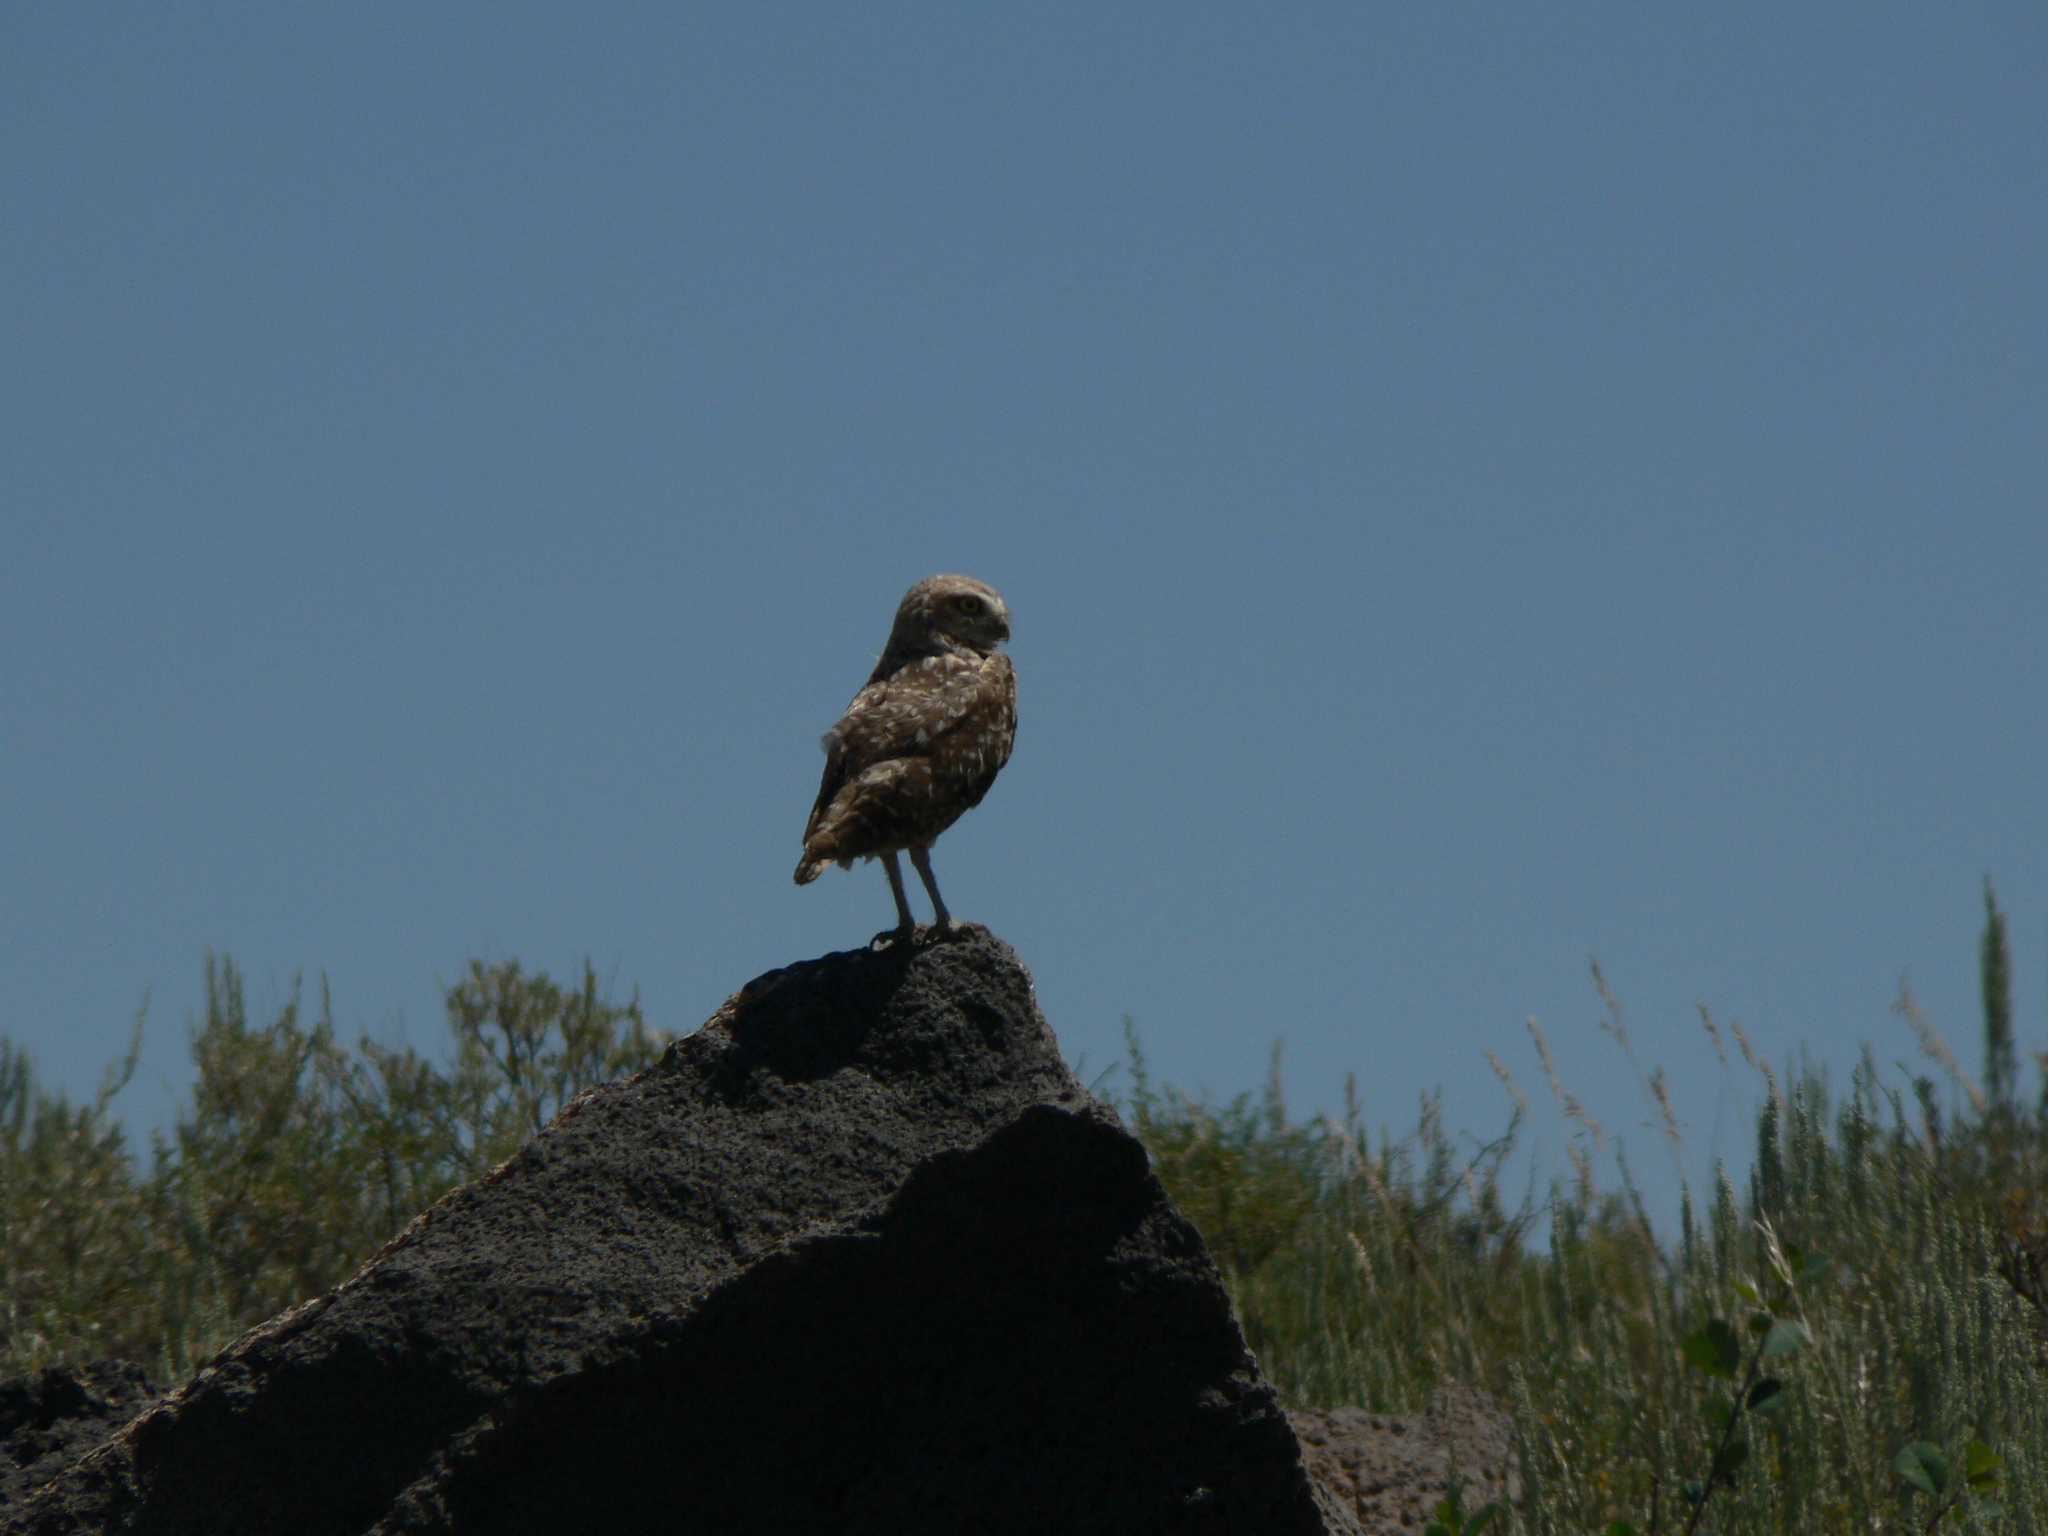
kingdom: Animalia
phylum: Chordata
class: Aves
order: Strigiformes
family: Strigidae
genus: Athene
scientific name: Athene cunicularia
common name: Burrowing owl
